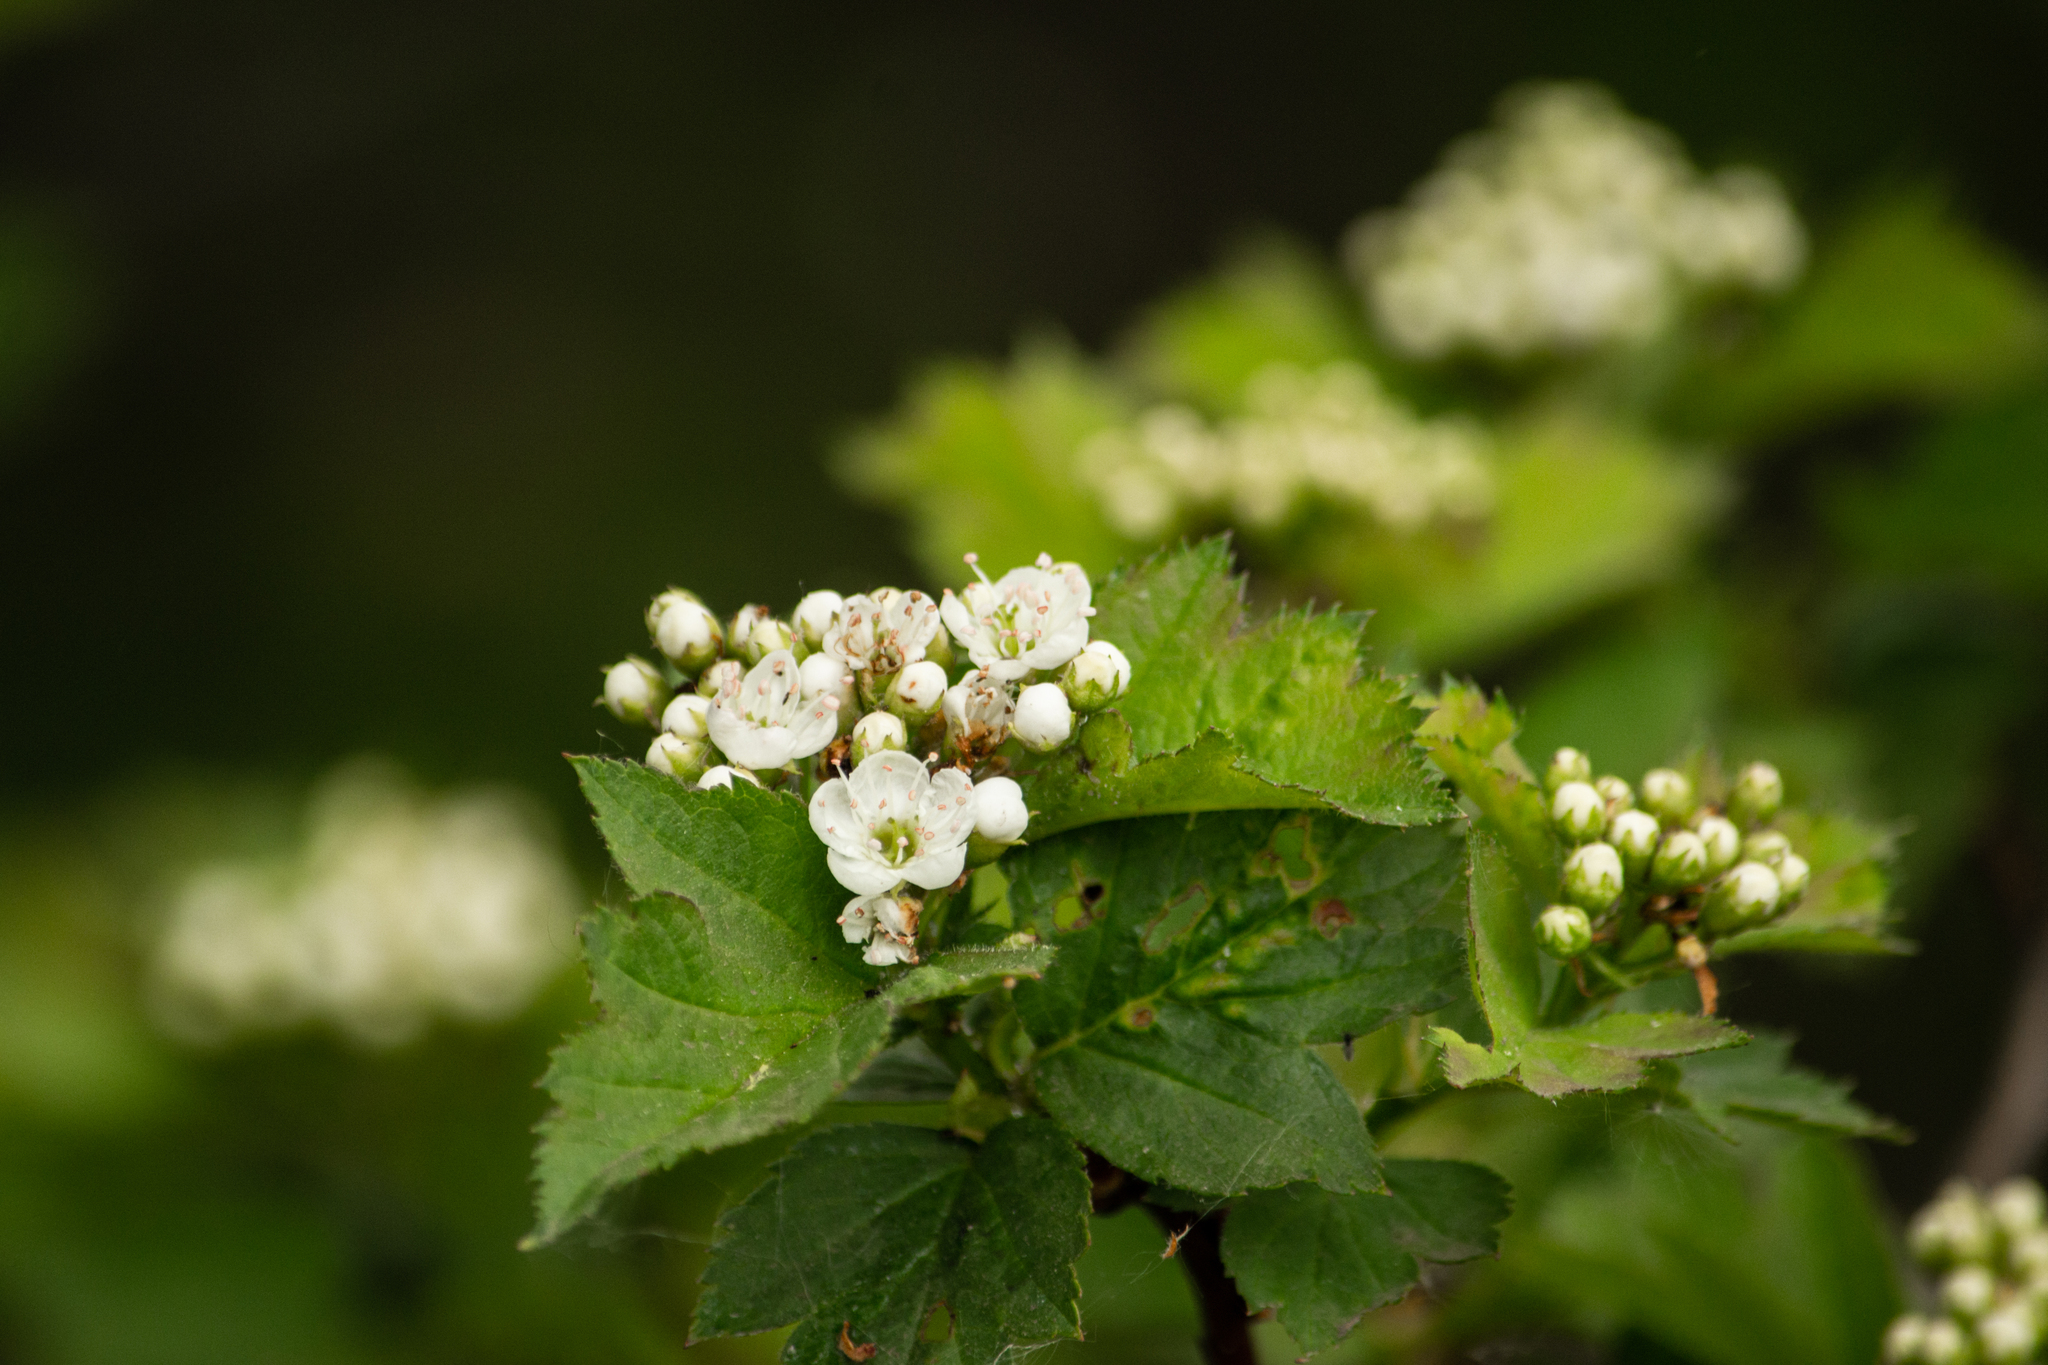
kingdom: Plantae
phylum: Tracheophyta
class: Magnoliopsida
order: Rosales
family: Rosaceae
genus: Crataegus
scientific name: Crataegus sanguinea
